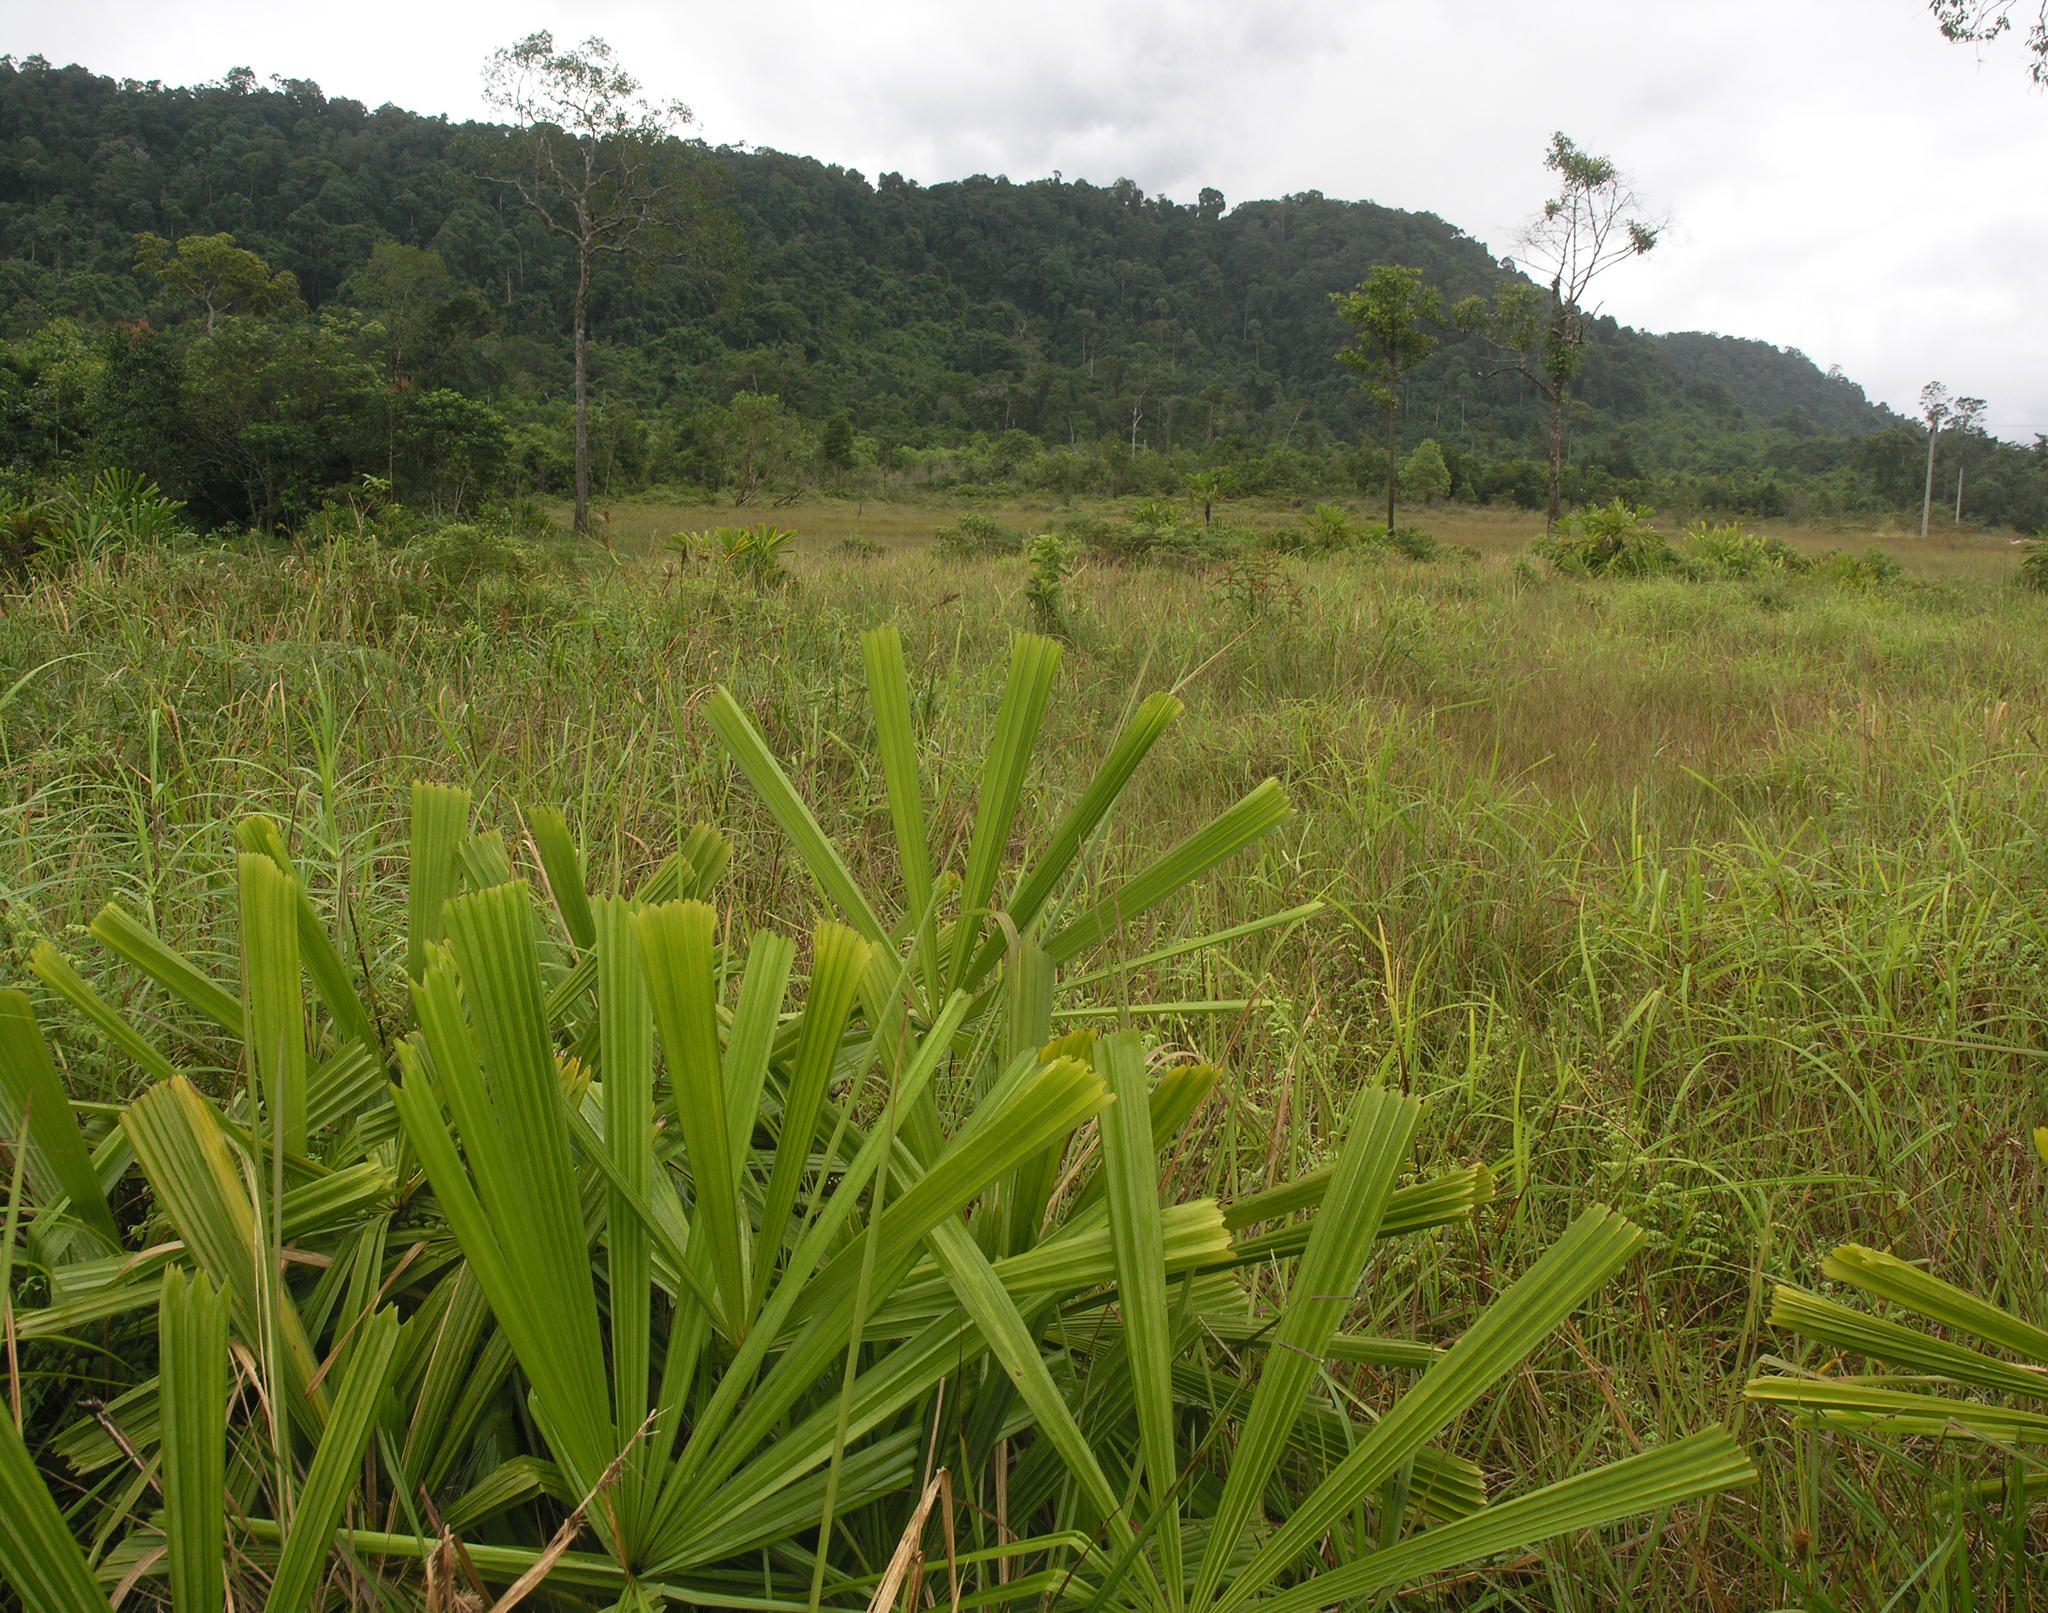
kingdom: Plantae
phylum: Tracheophyta
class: Liliopsida
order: Arecales
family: Arecaceae
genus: Licuala
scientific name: Licuala spinosa
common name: Mangrove fan palm
